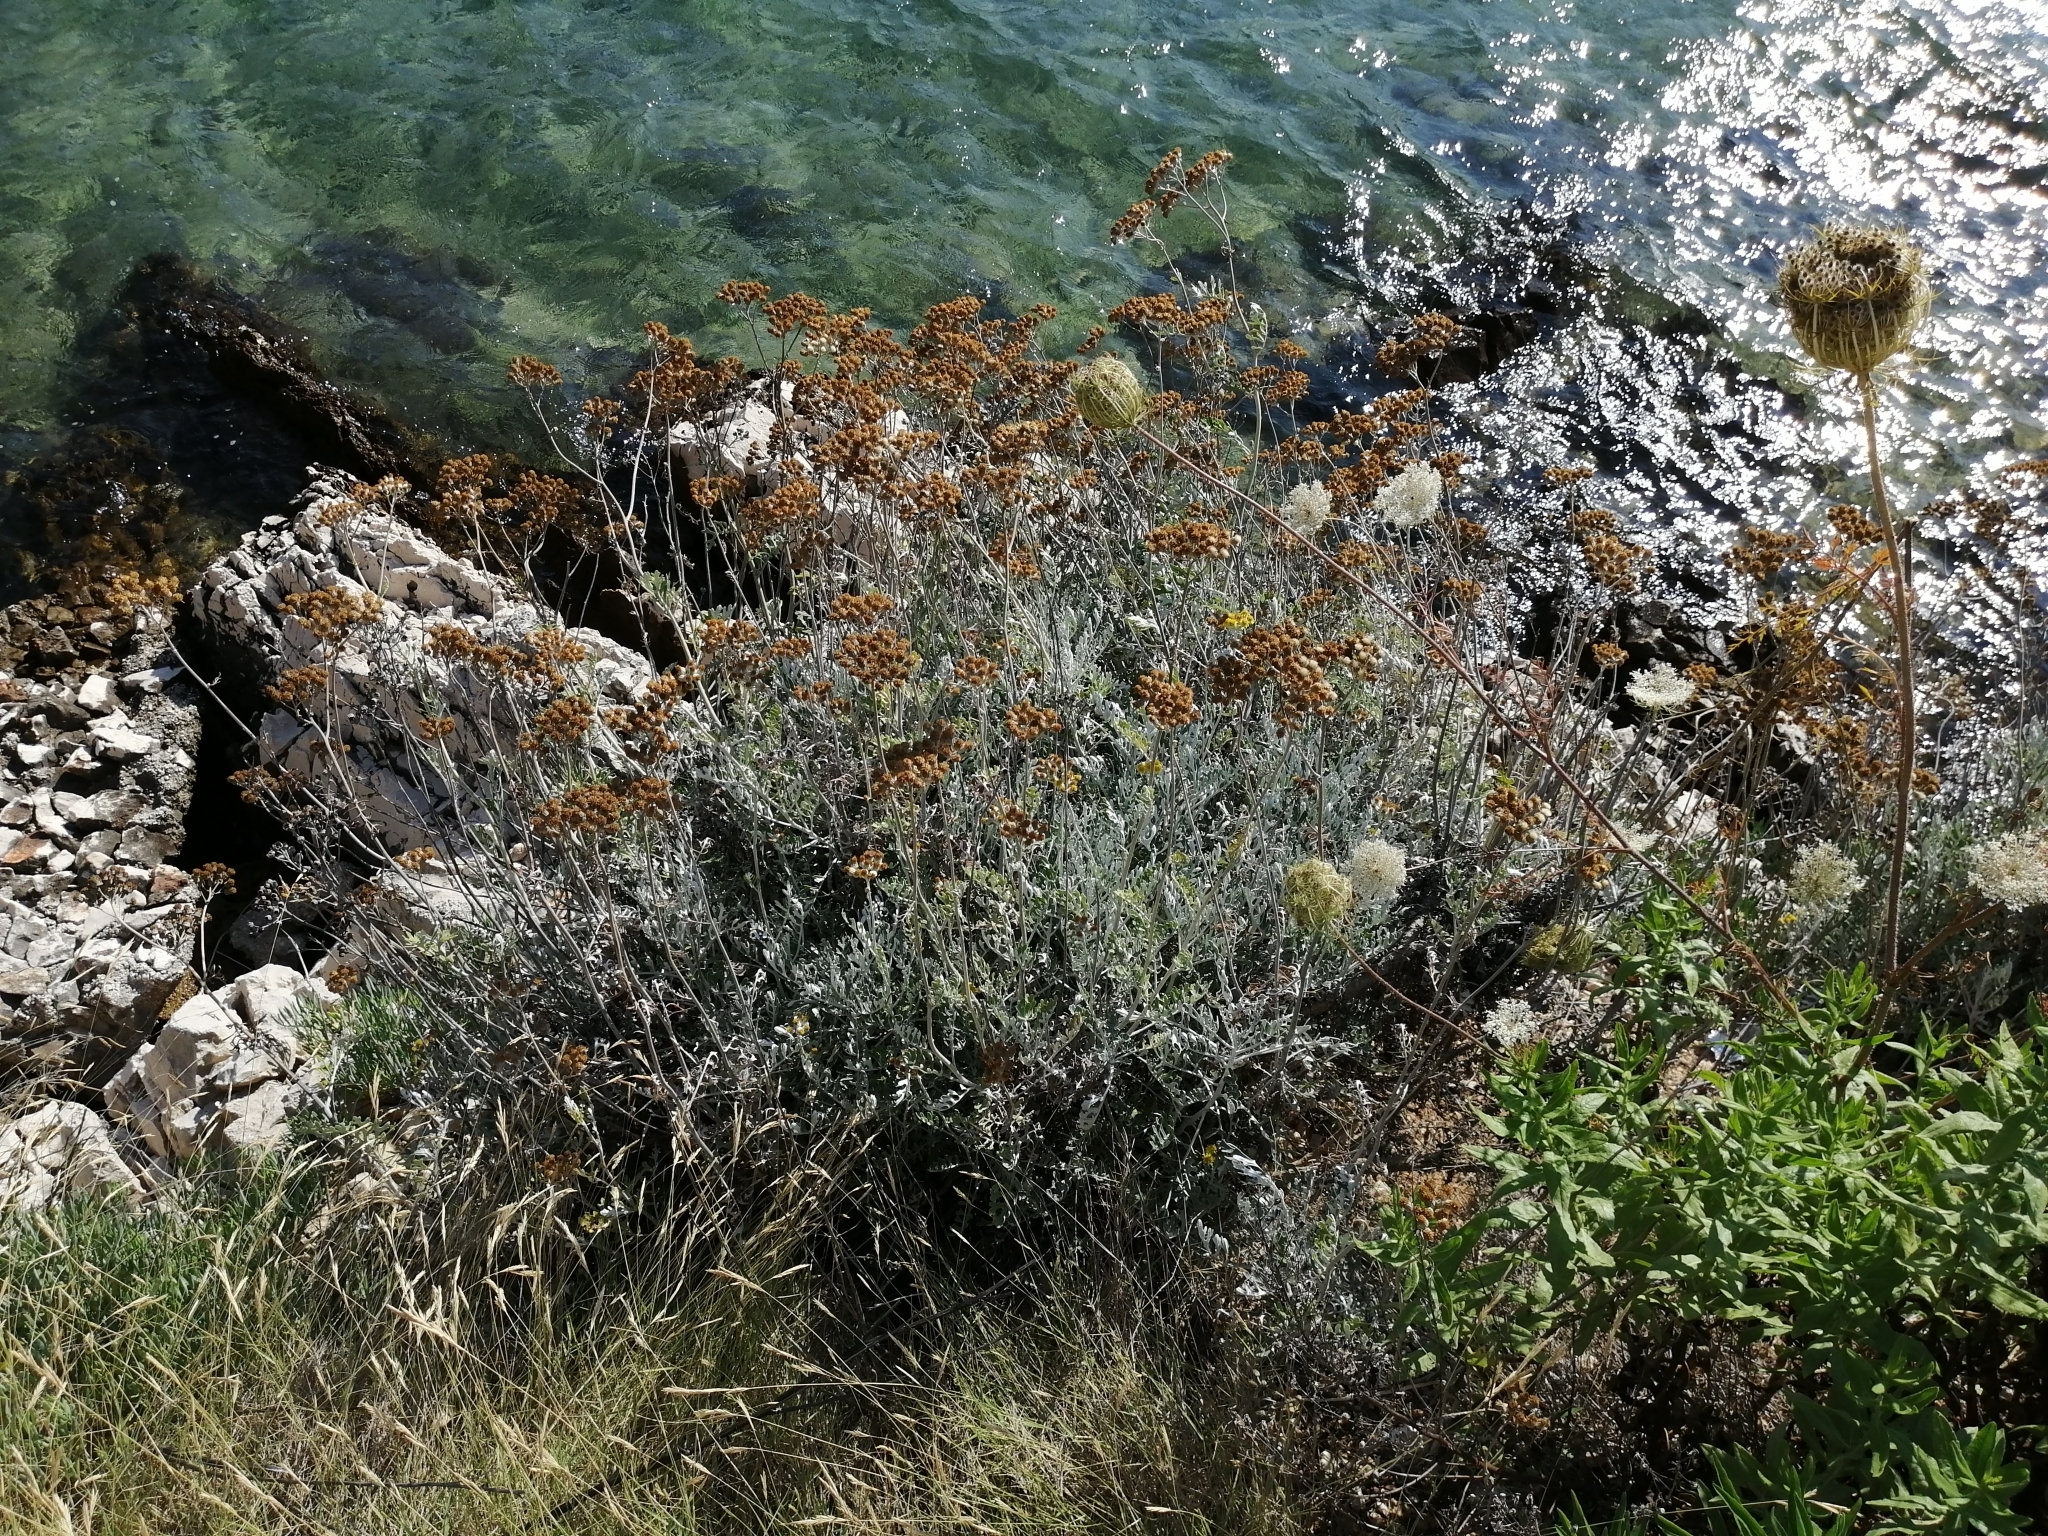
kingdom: Plantae
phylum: Tracheophyta
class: Magnoliopsida
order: Asterales
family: Asteraceae
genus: Jacobaea
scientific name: Jacobaea maritima
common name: Silver ragwort
